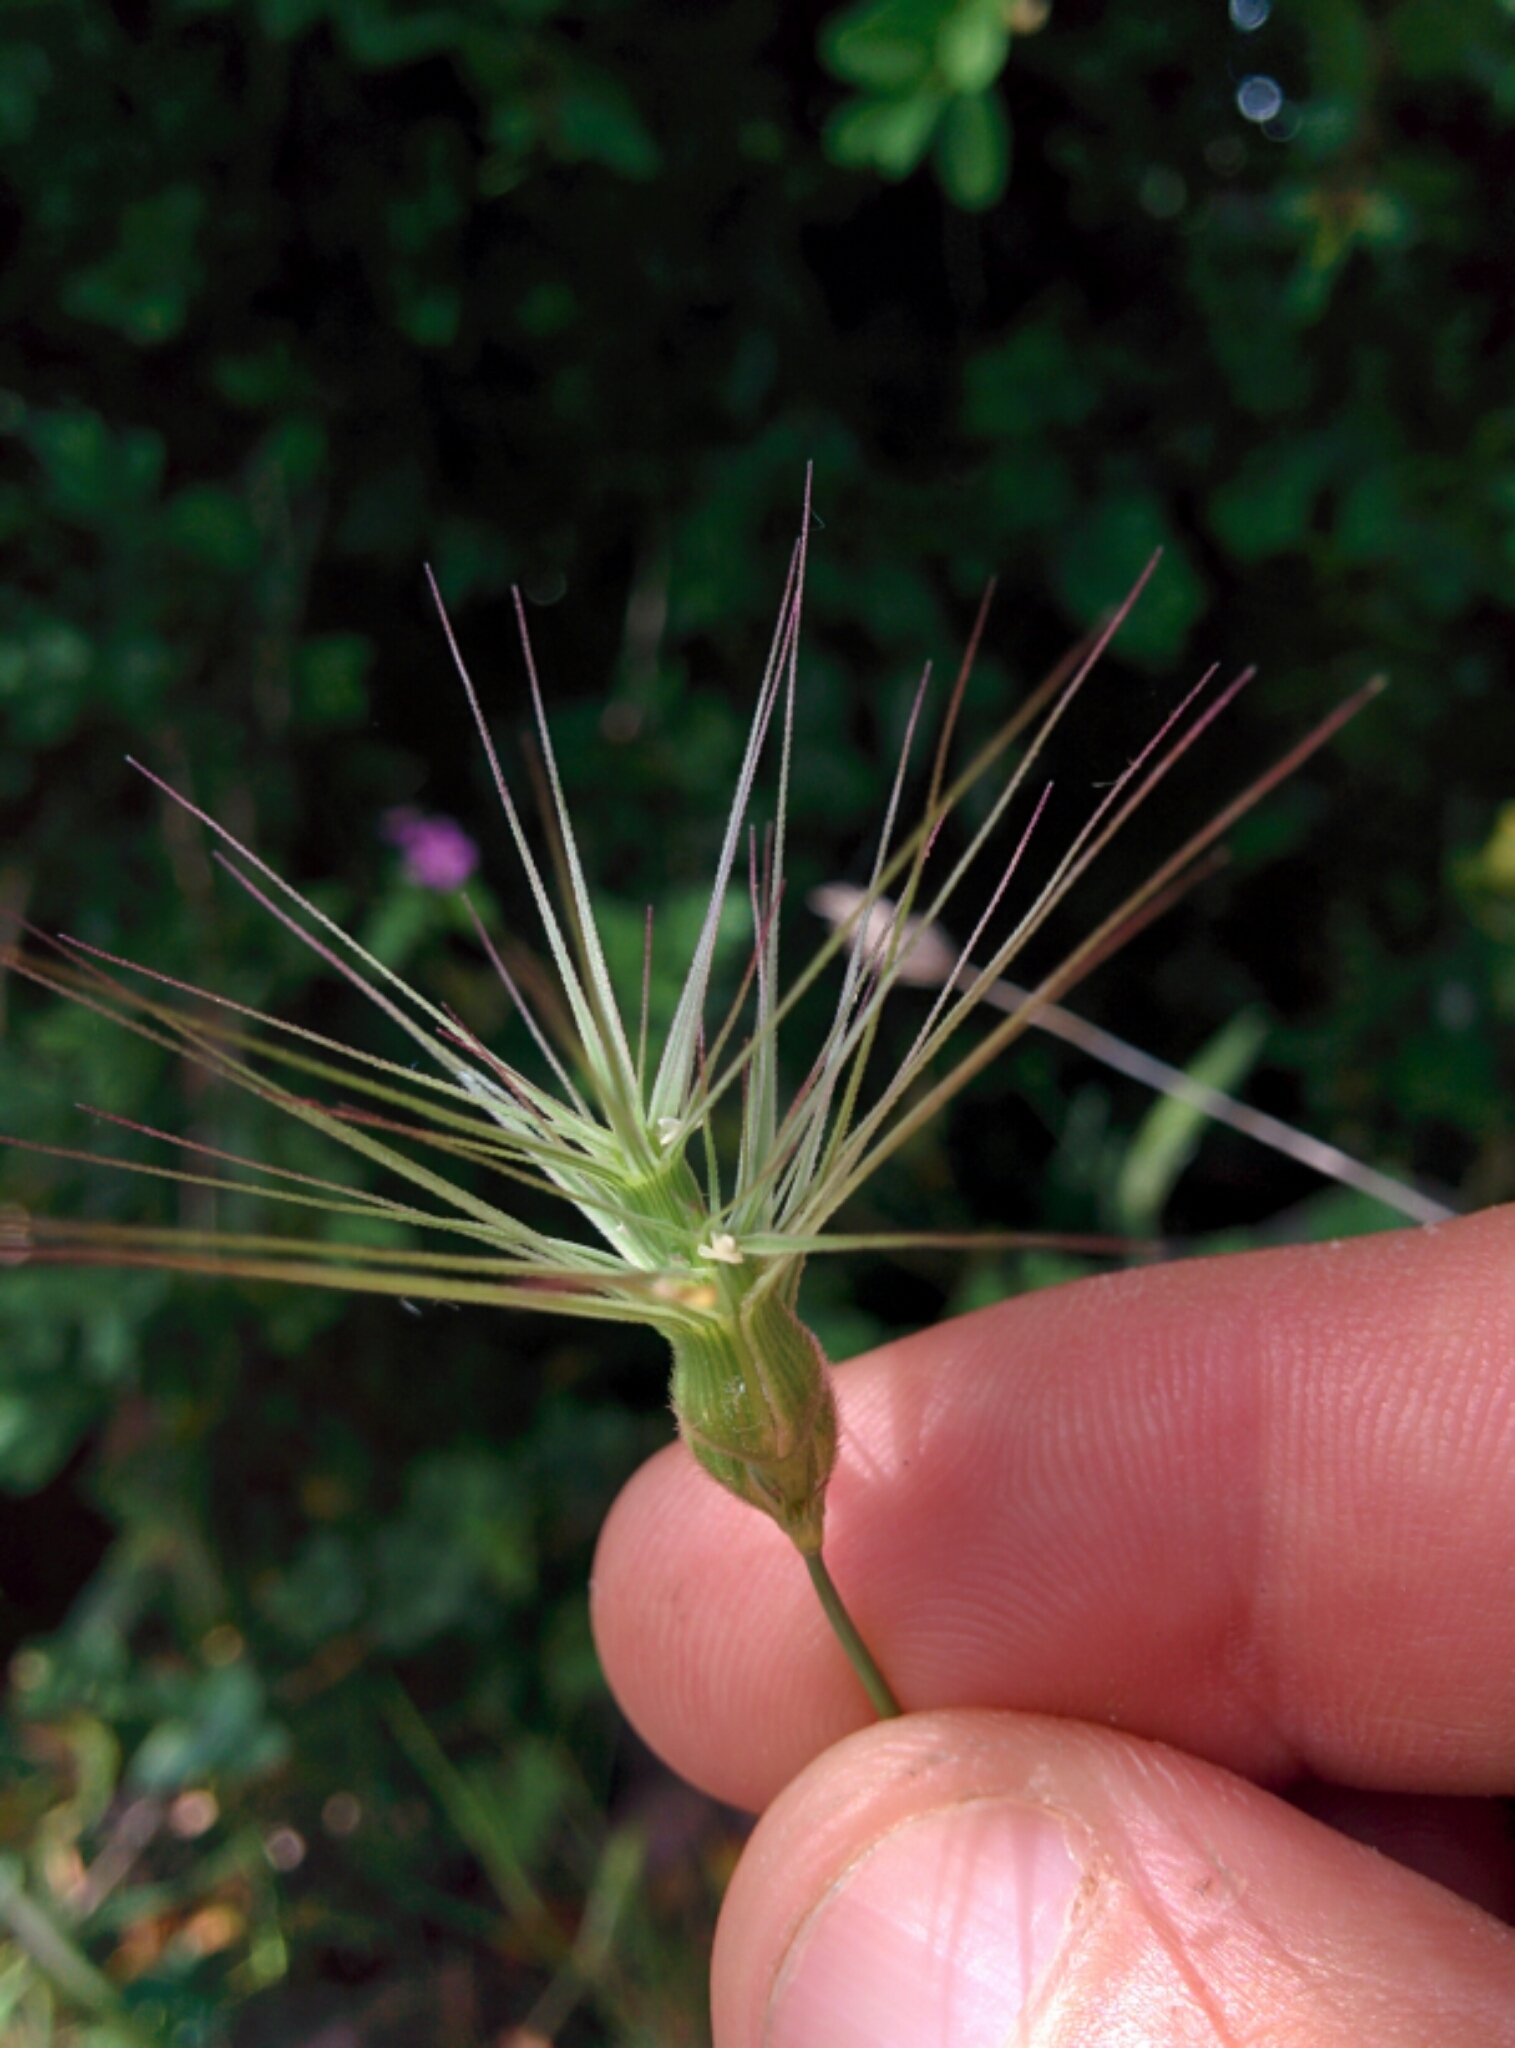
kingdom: Plantae
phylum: Tracheophyta
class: Liliopsida
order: Poales
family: Poaceae
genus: Aegilops
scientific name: Aegilops geniculata
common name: Ovate goat grass
